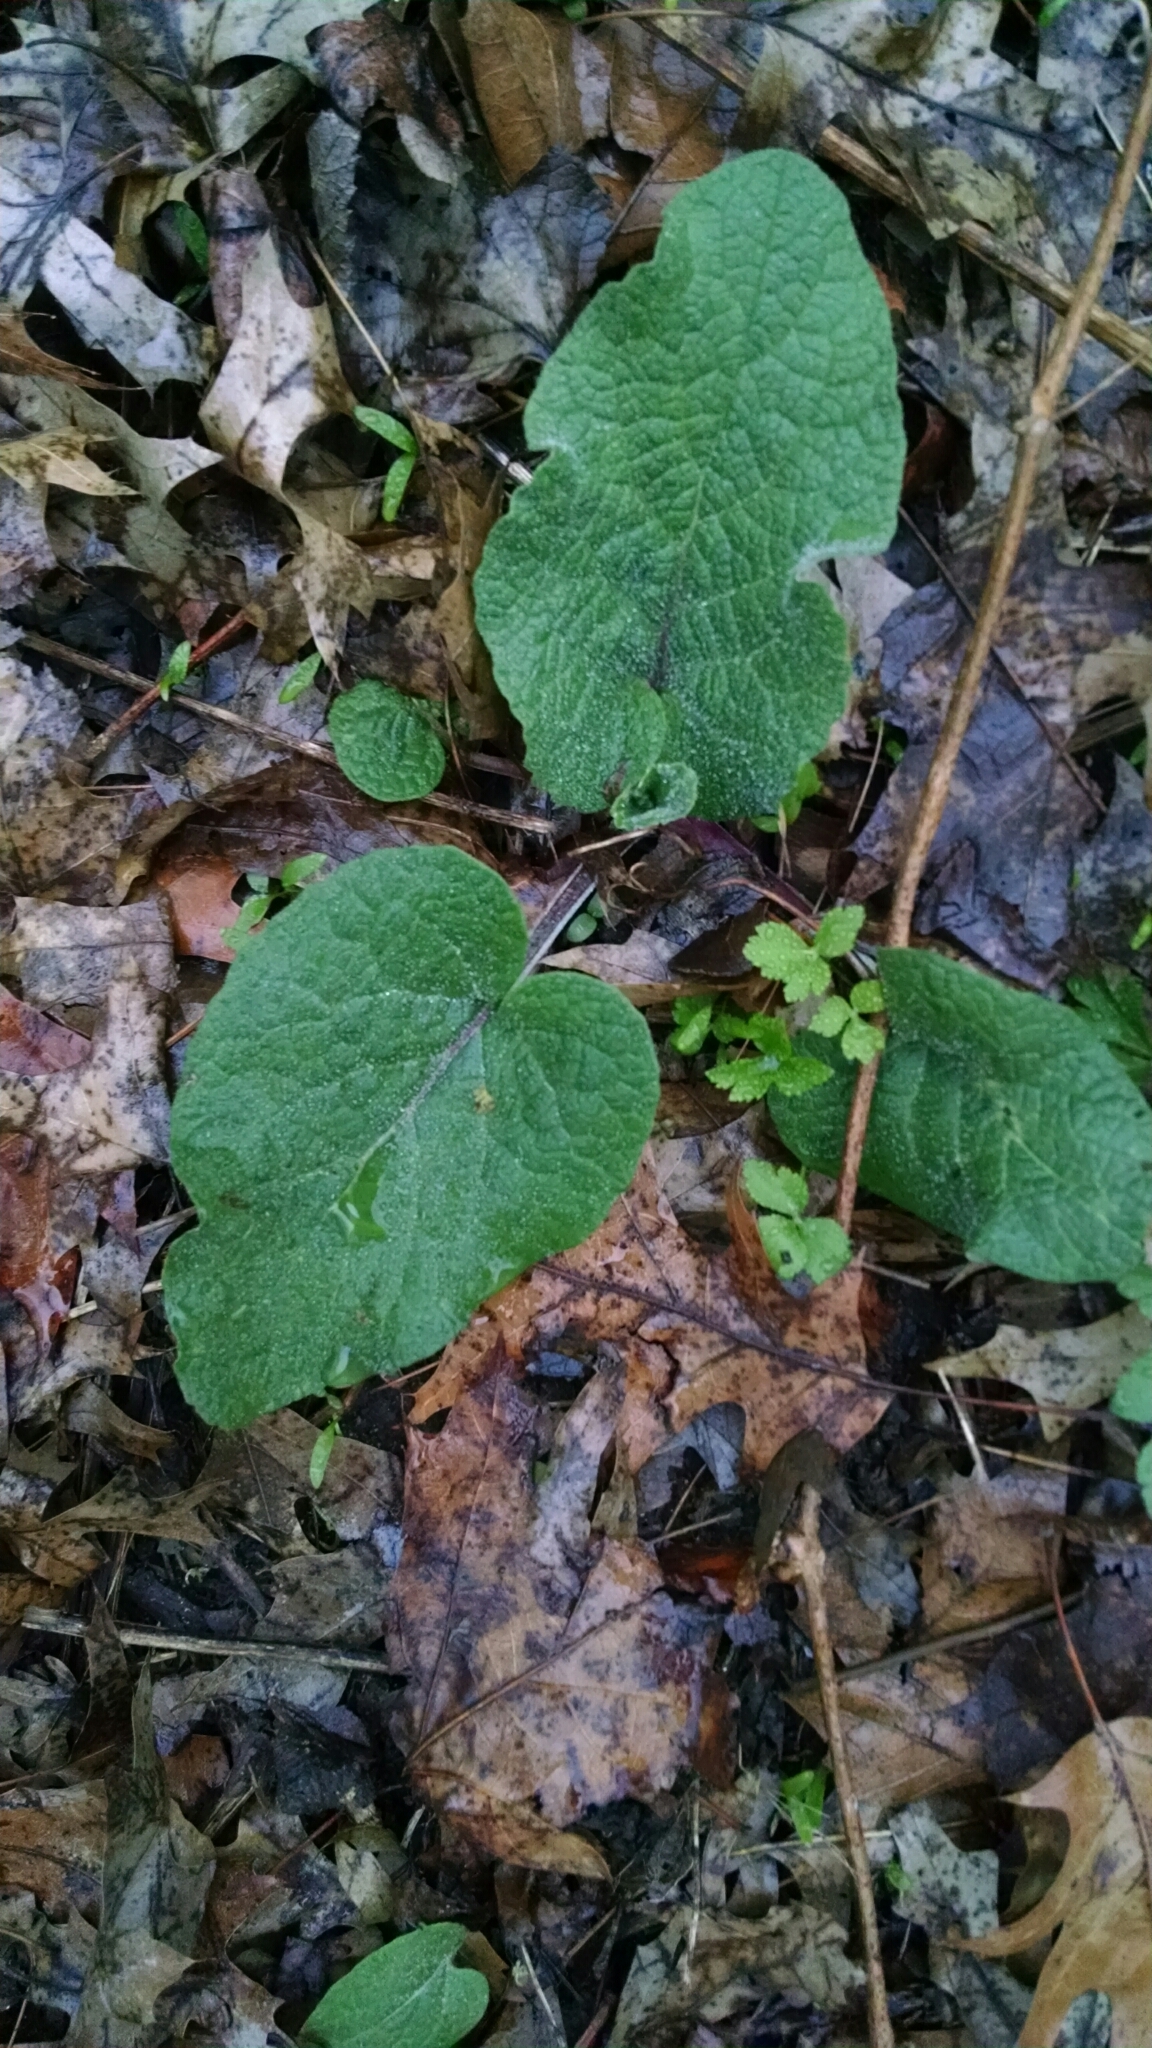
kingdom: Plantae
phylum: Tracheophyta
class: Magnoliopsida
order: Asterales
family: Asteraceae
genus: Arctium
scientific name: Arctium
